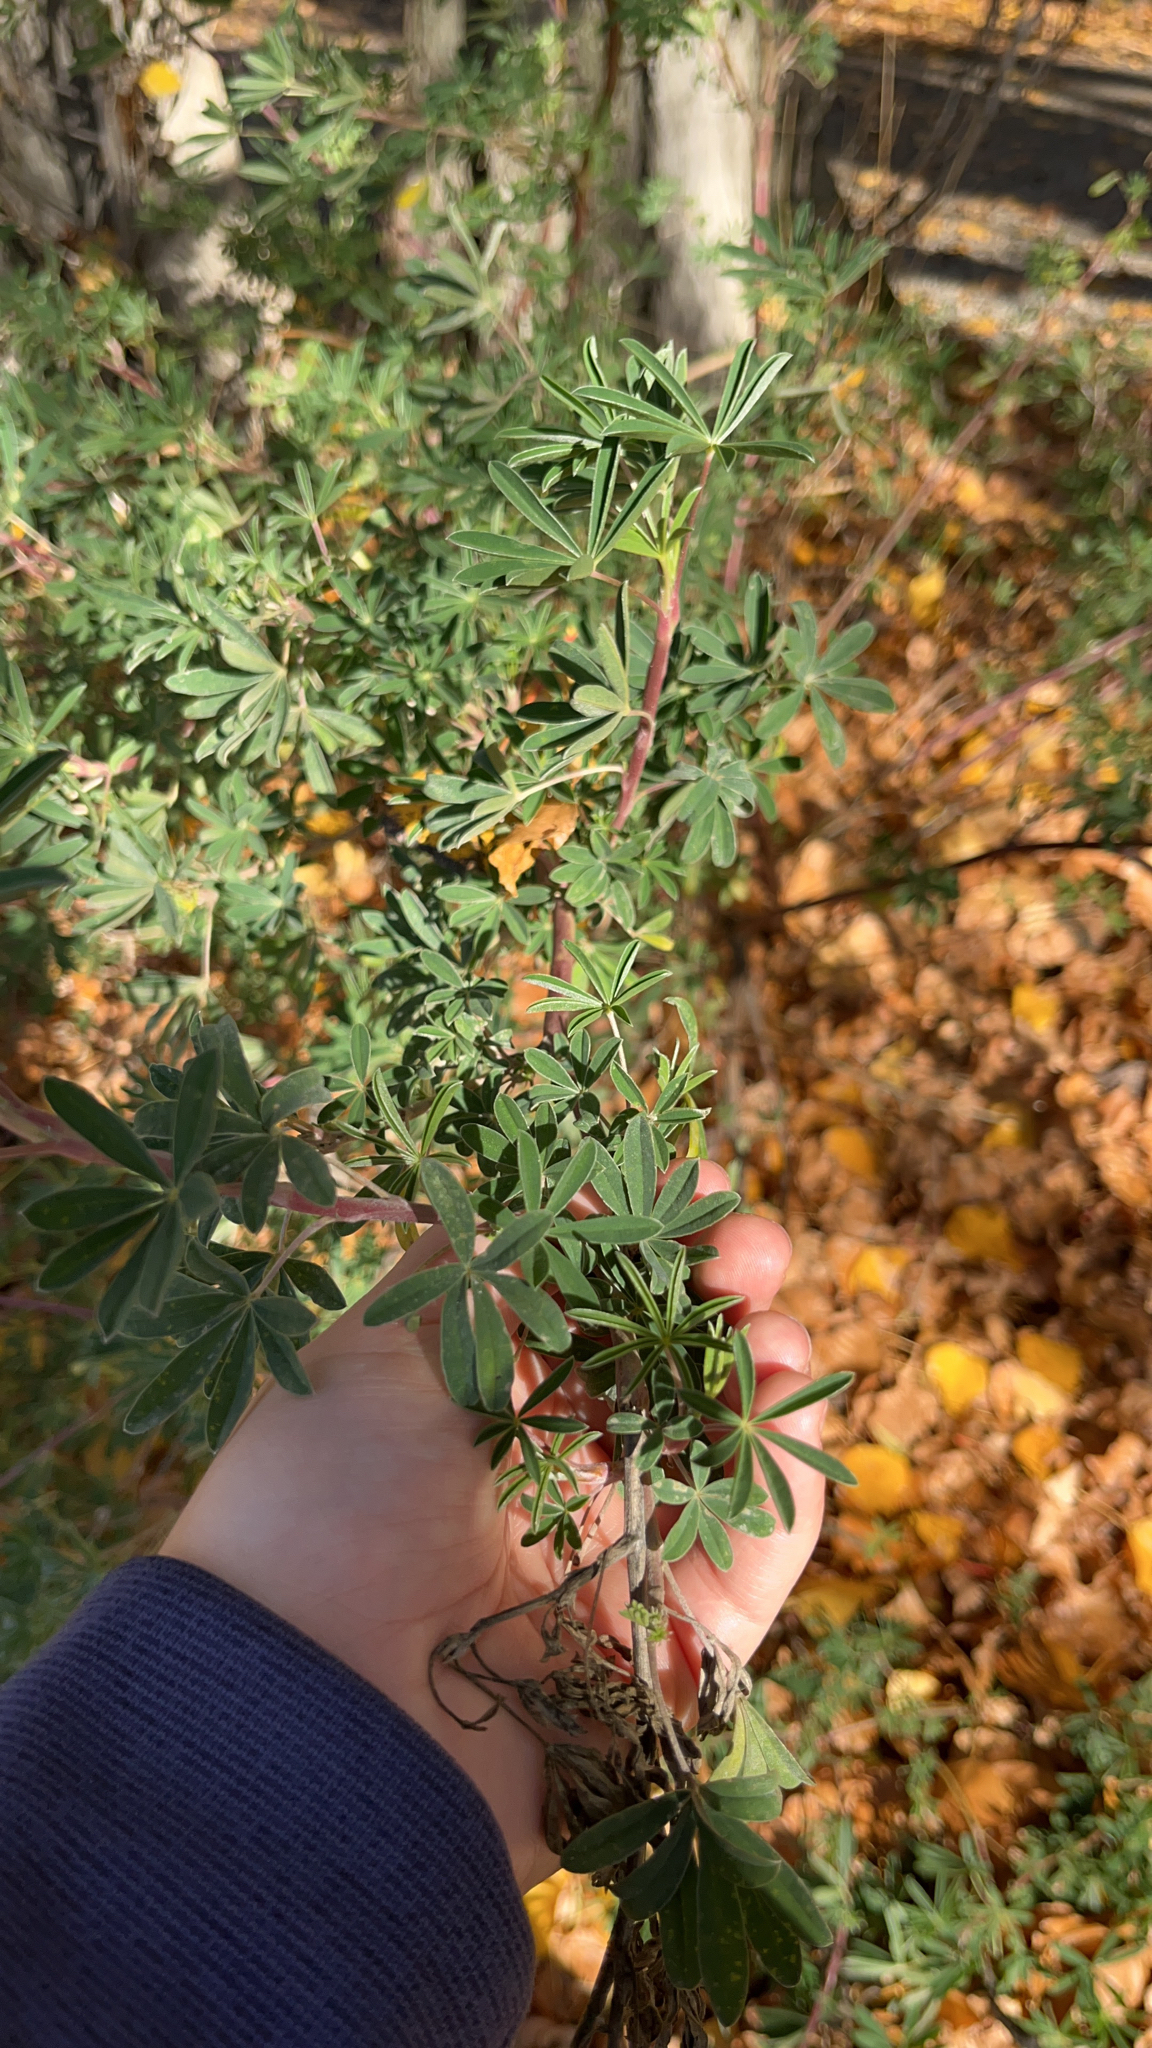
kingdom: Plantae
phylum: Tracheophyta
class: Magnoliopsida
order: Fabales
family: Fabaceae
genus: Lupinus
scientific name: Lupinus arboreus
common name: Yellow bush lupine
